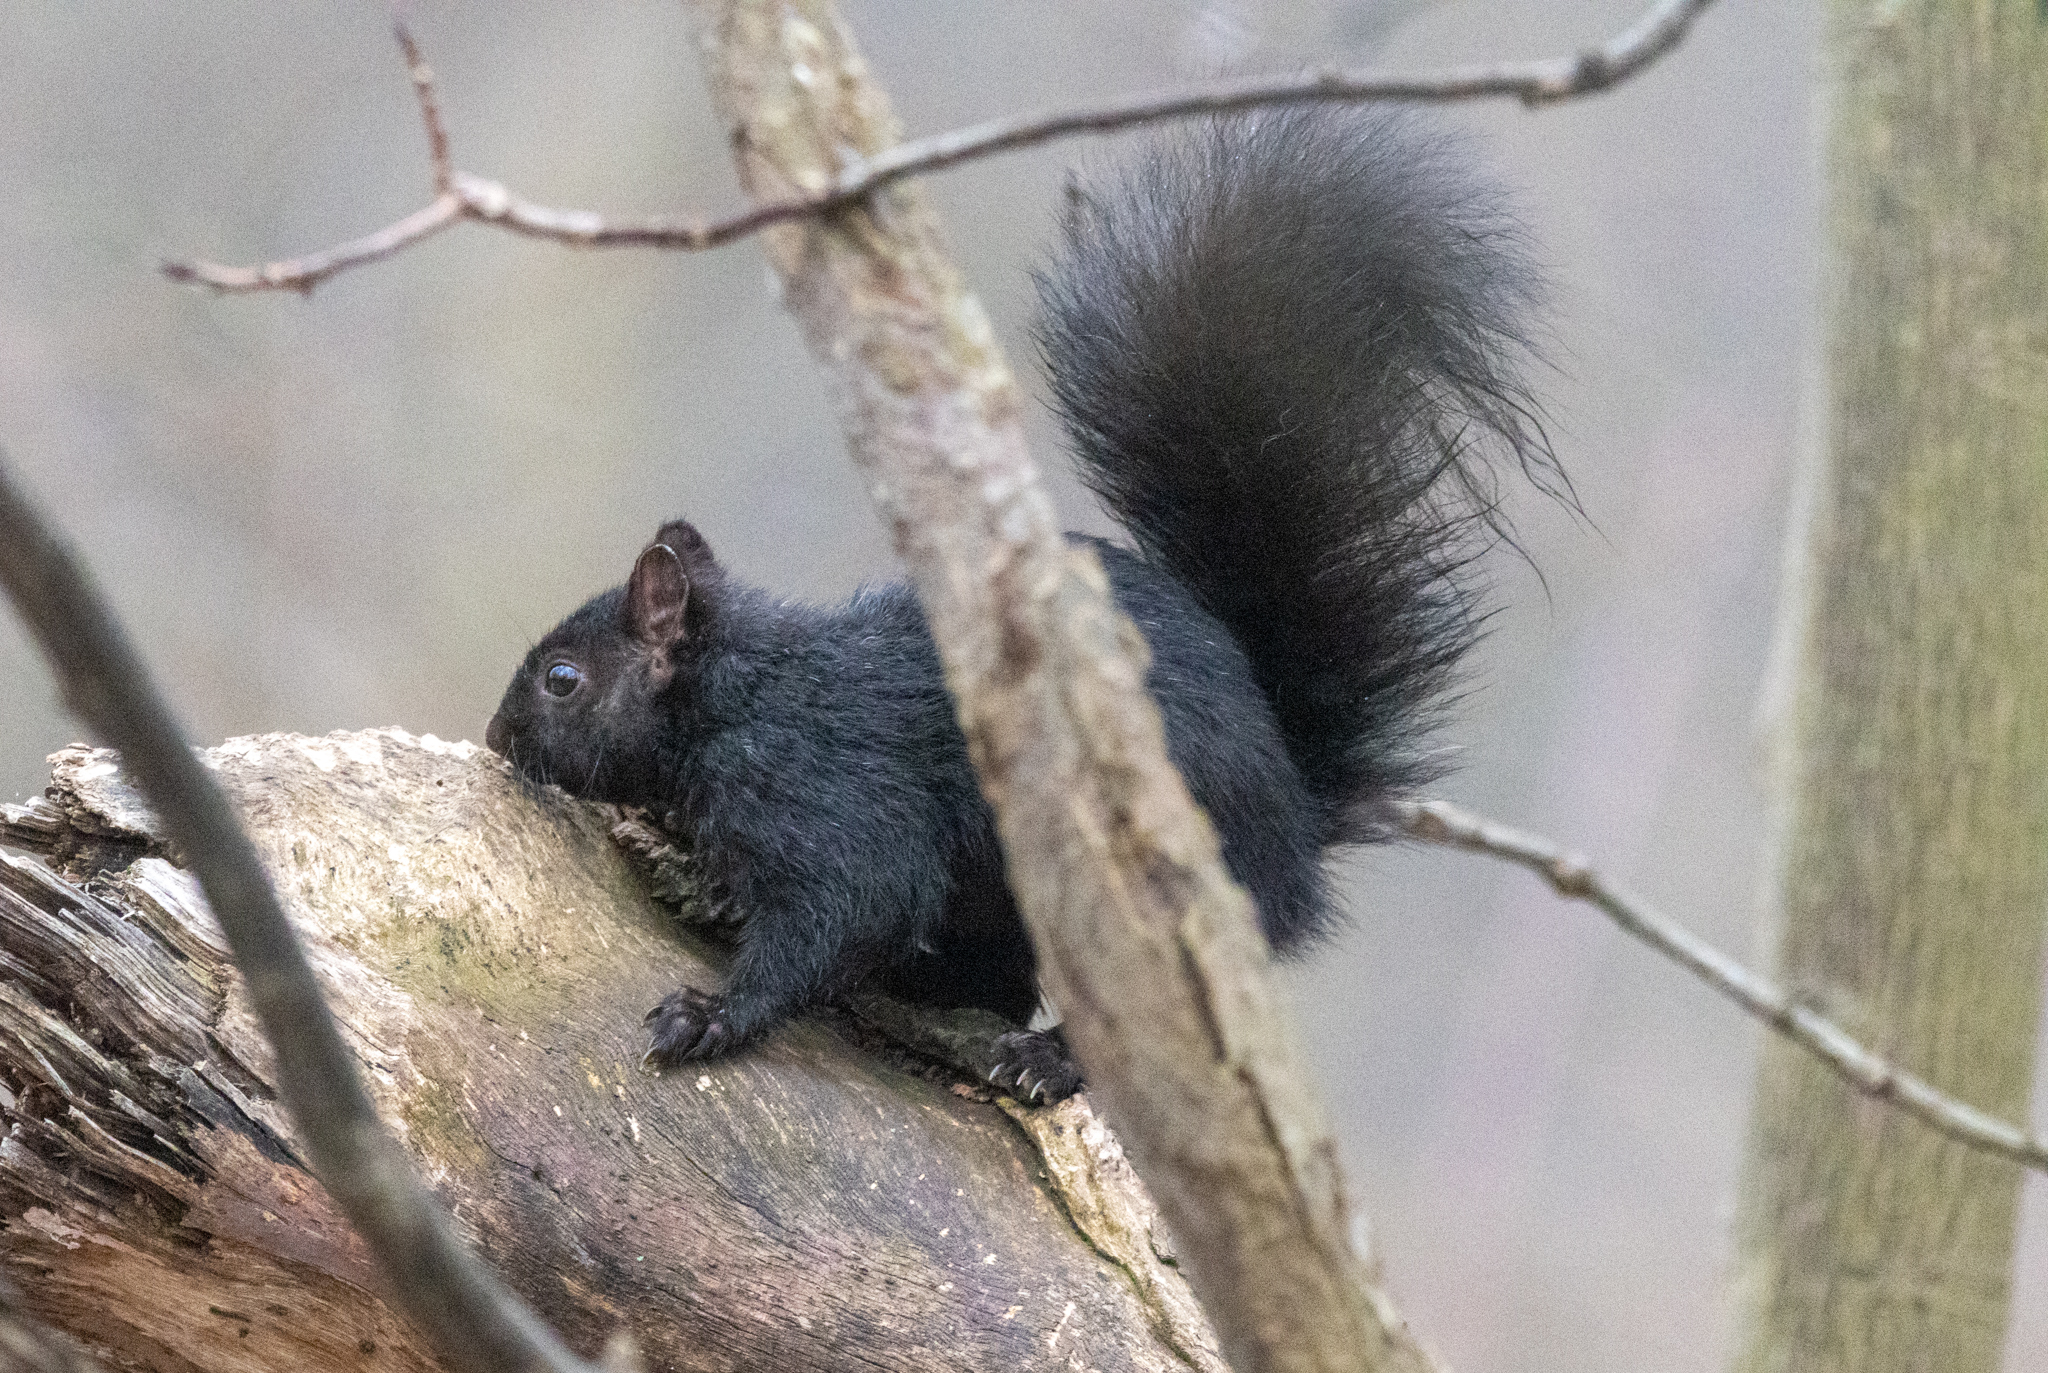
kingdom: Animalia
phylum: Chordata
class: Mammalia
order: Rodentia
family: Sciuridae
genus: Sciurus
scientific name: Sciurus carolinensis
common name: Eastern gray squirrel
